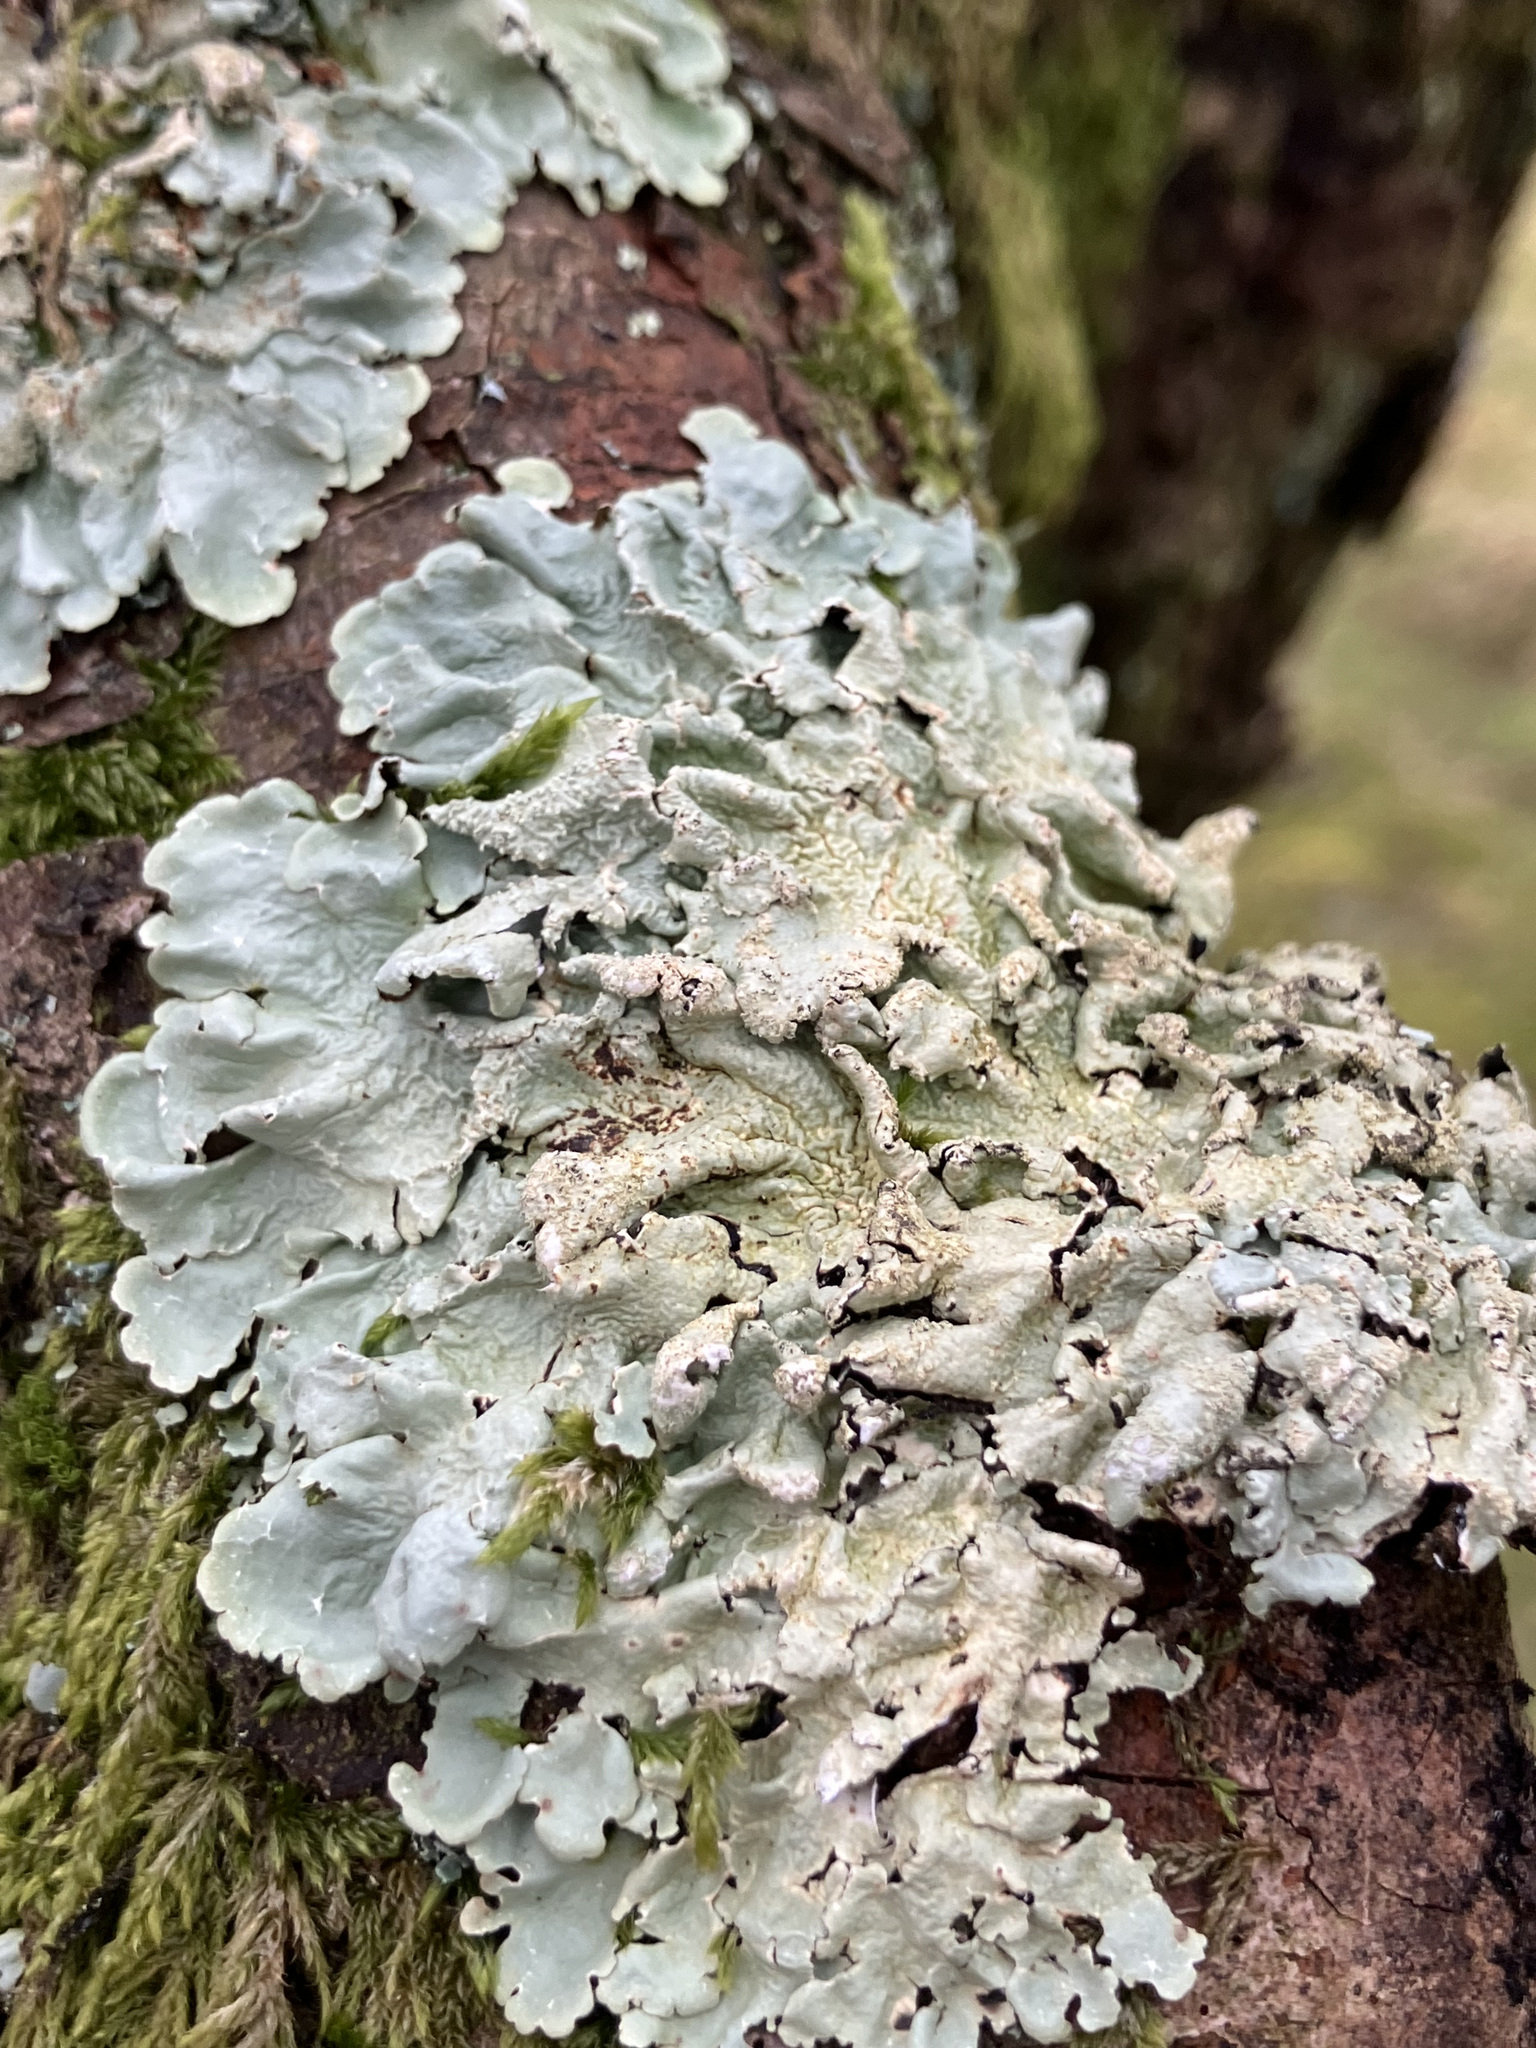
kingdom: Fungi
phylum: Ascomycota
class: Lecanoromycetes
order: Lecanorales
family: Parmeliaceae
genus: Flavoparmelia
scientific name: Flavoparmelia caperata
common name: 40-mile per hour lichen
